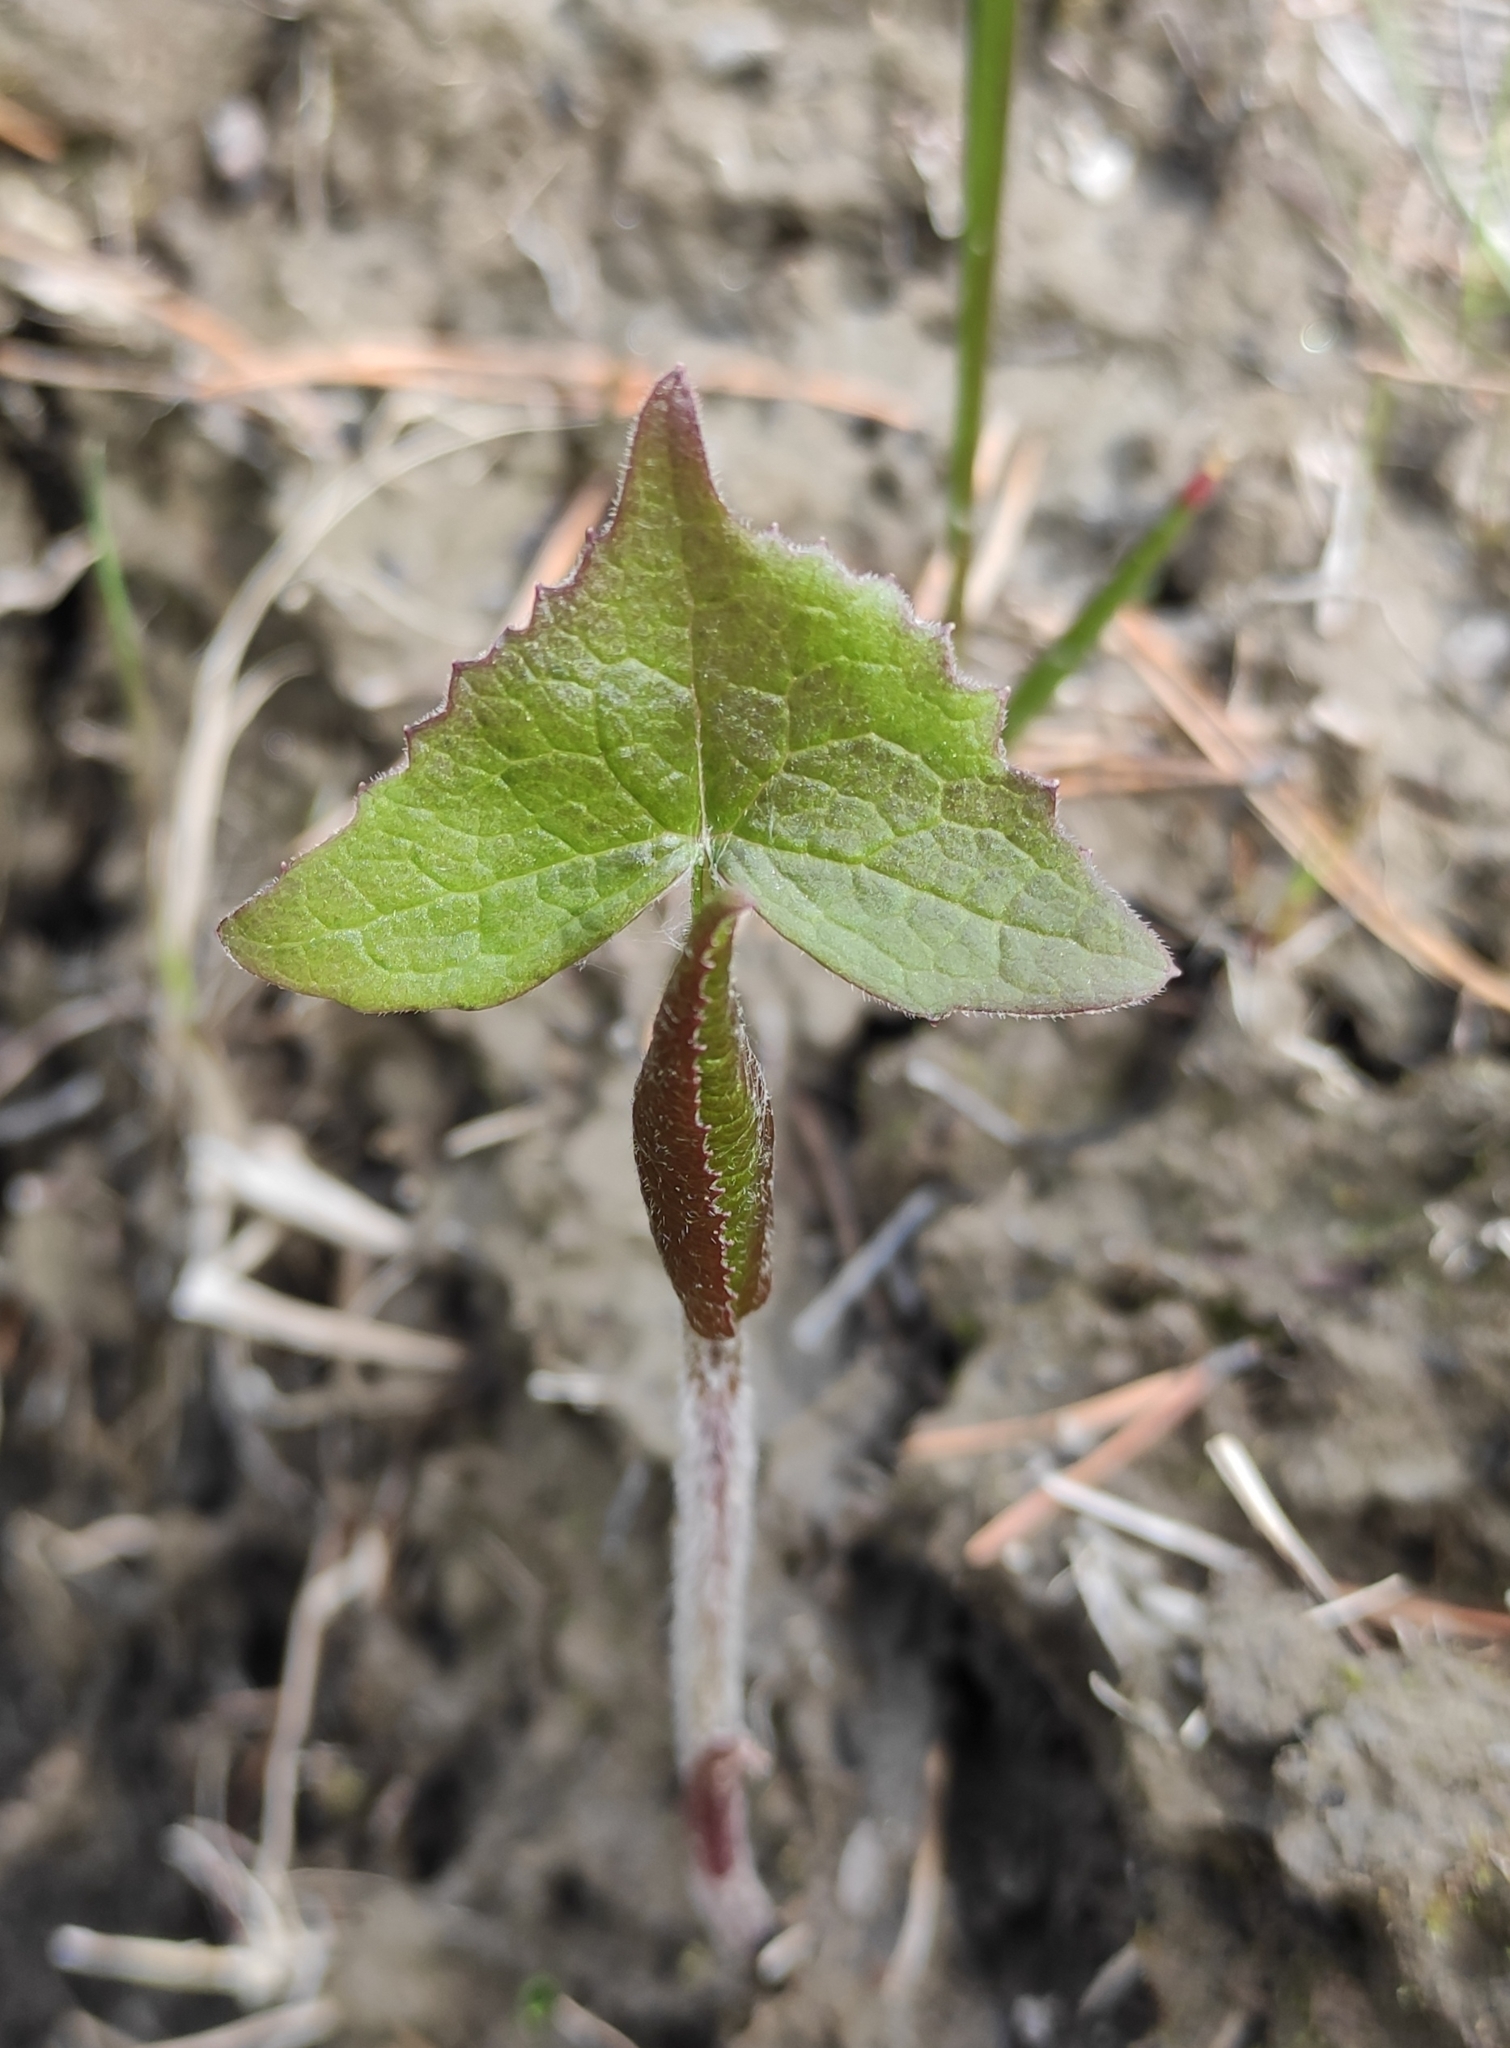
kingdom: Plantae
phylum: Tracheophyta
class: Magnoliopsida
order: Asterales
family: Asteraceae
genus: Parasenecio
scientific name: Parasenecio hastatus
